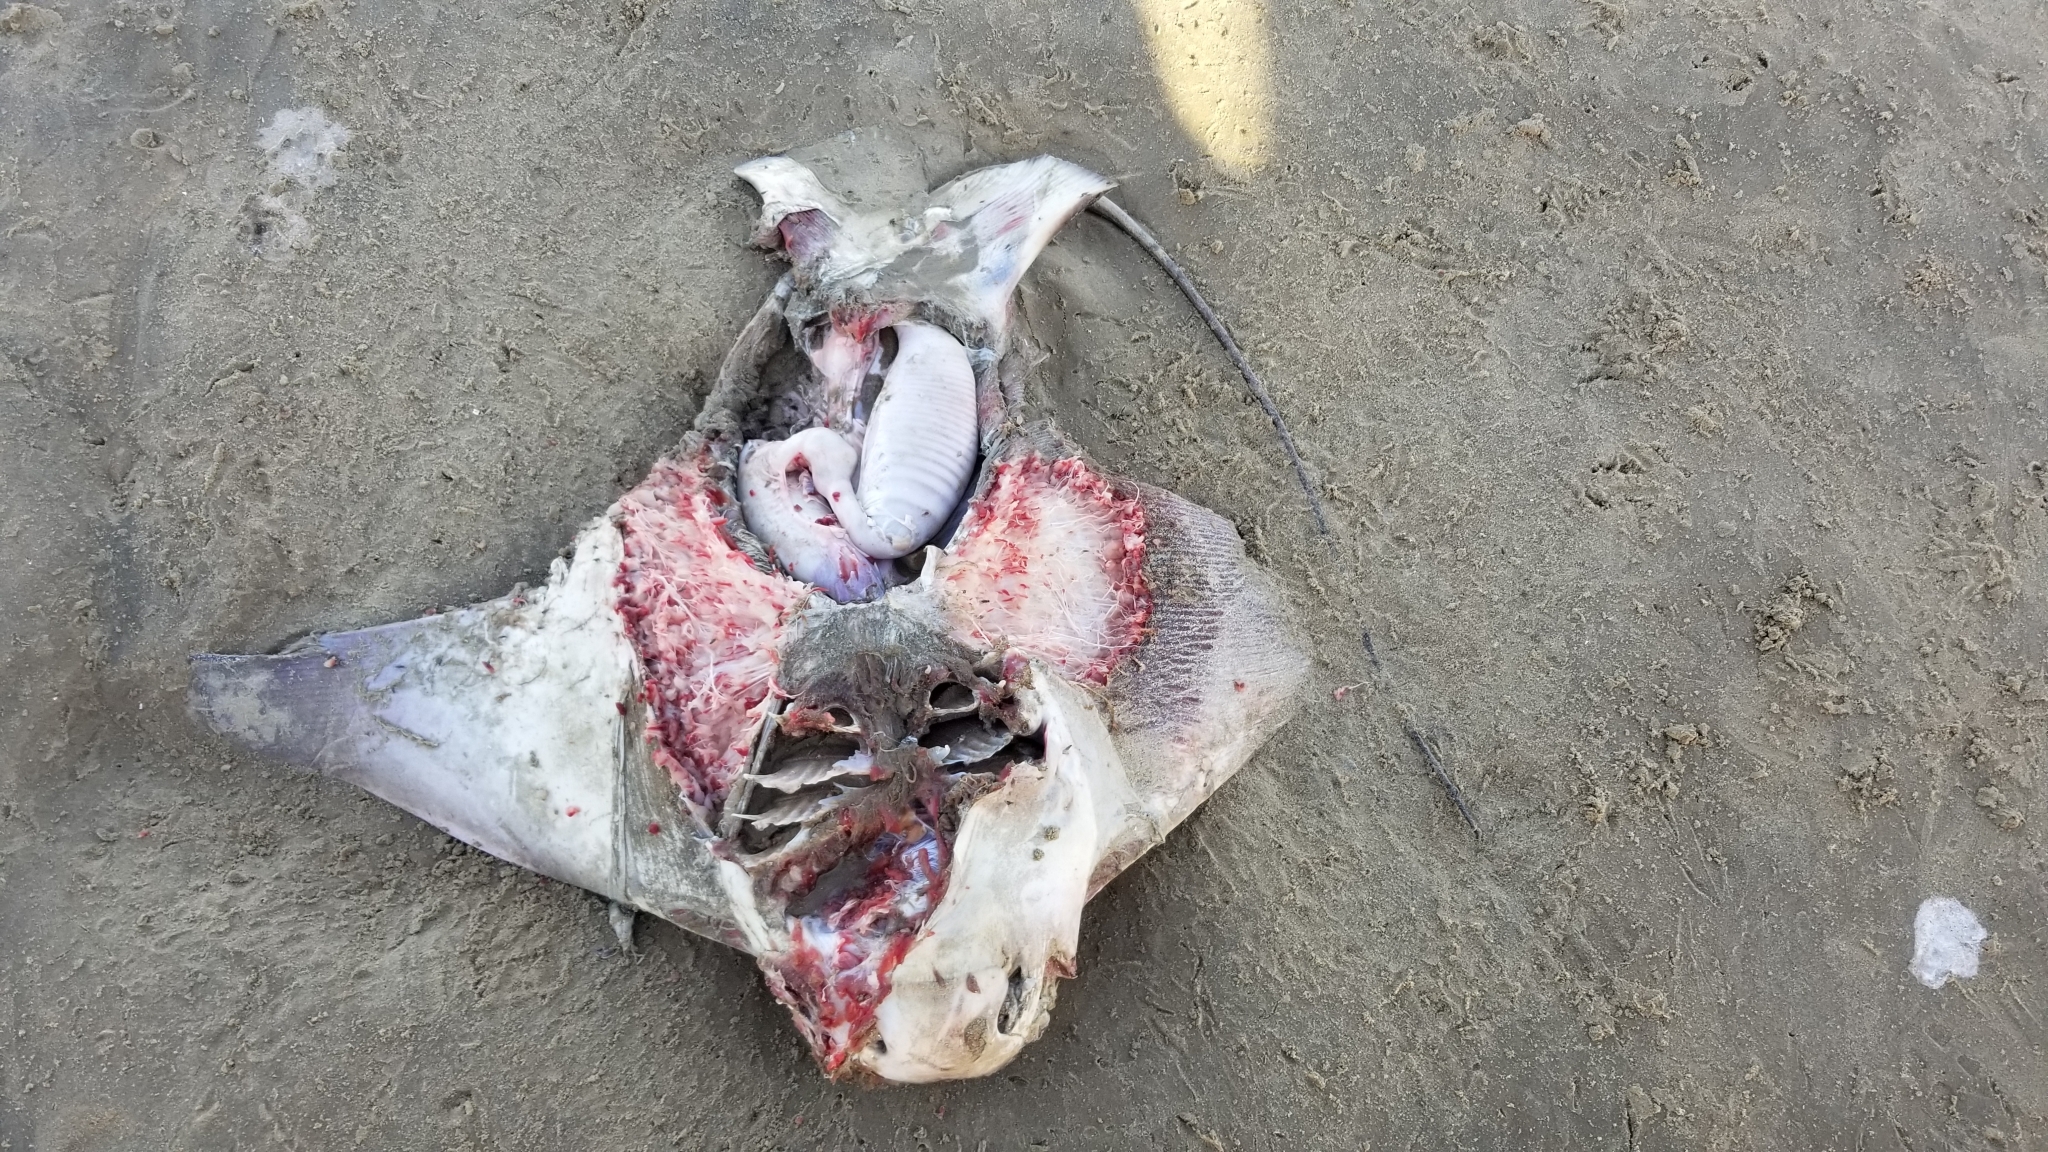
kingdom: Animalia
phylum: Chordata
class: Elasmobranchii
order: Myliobatiformes
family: Myliobatidae
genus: Myliobatis
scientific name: Myliobatis californica
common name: Bat ray
